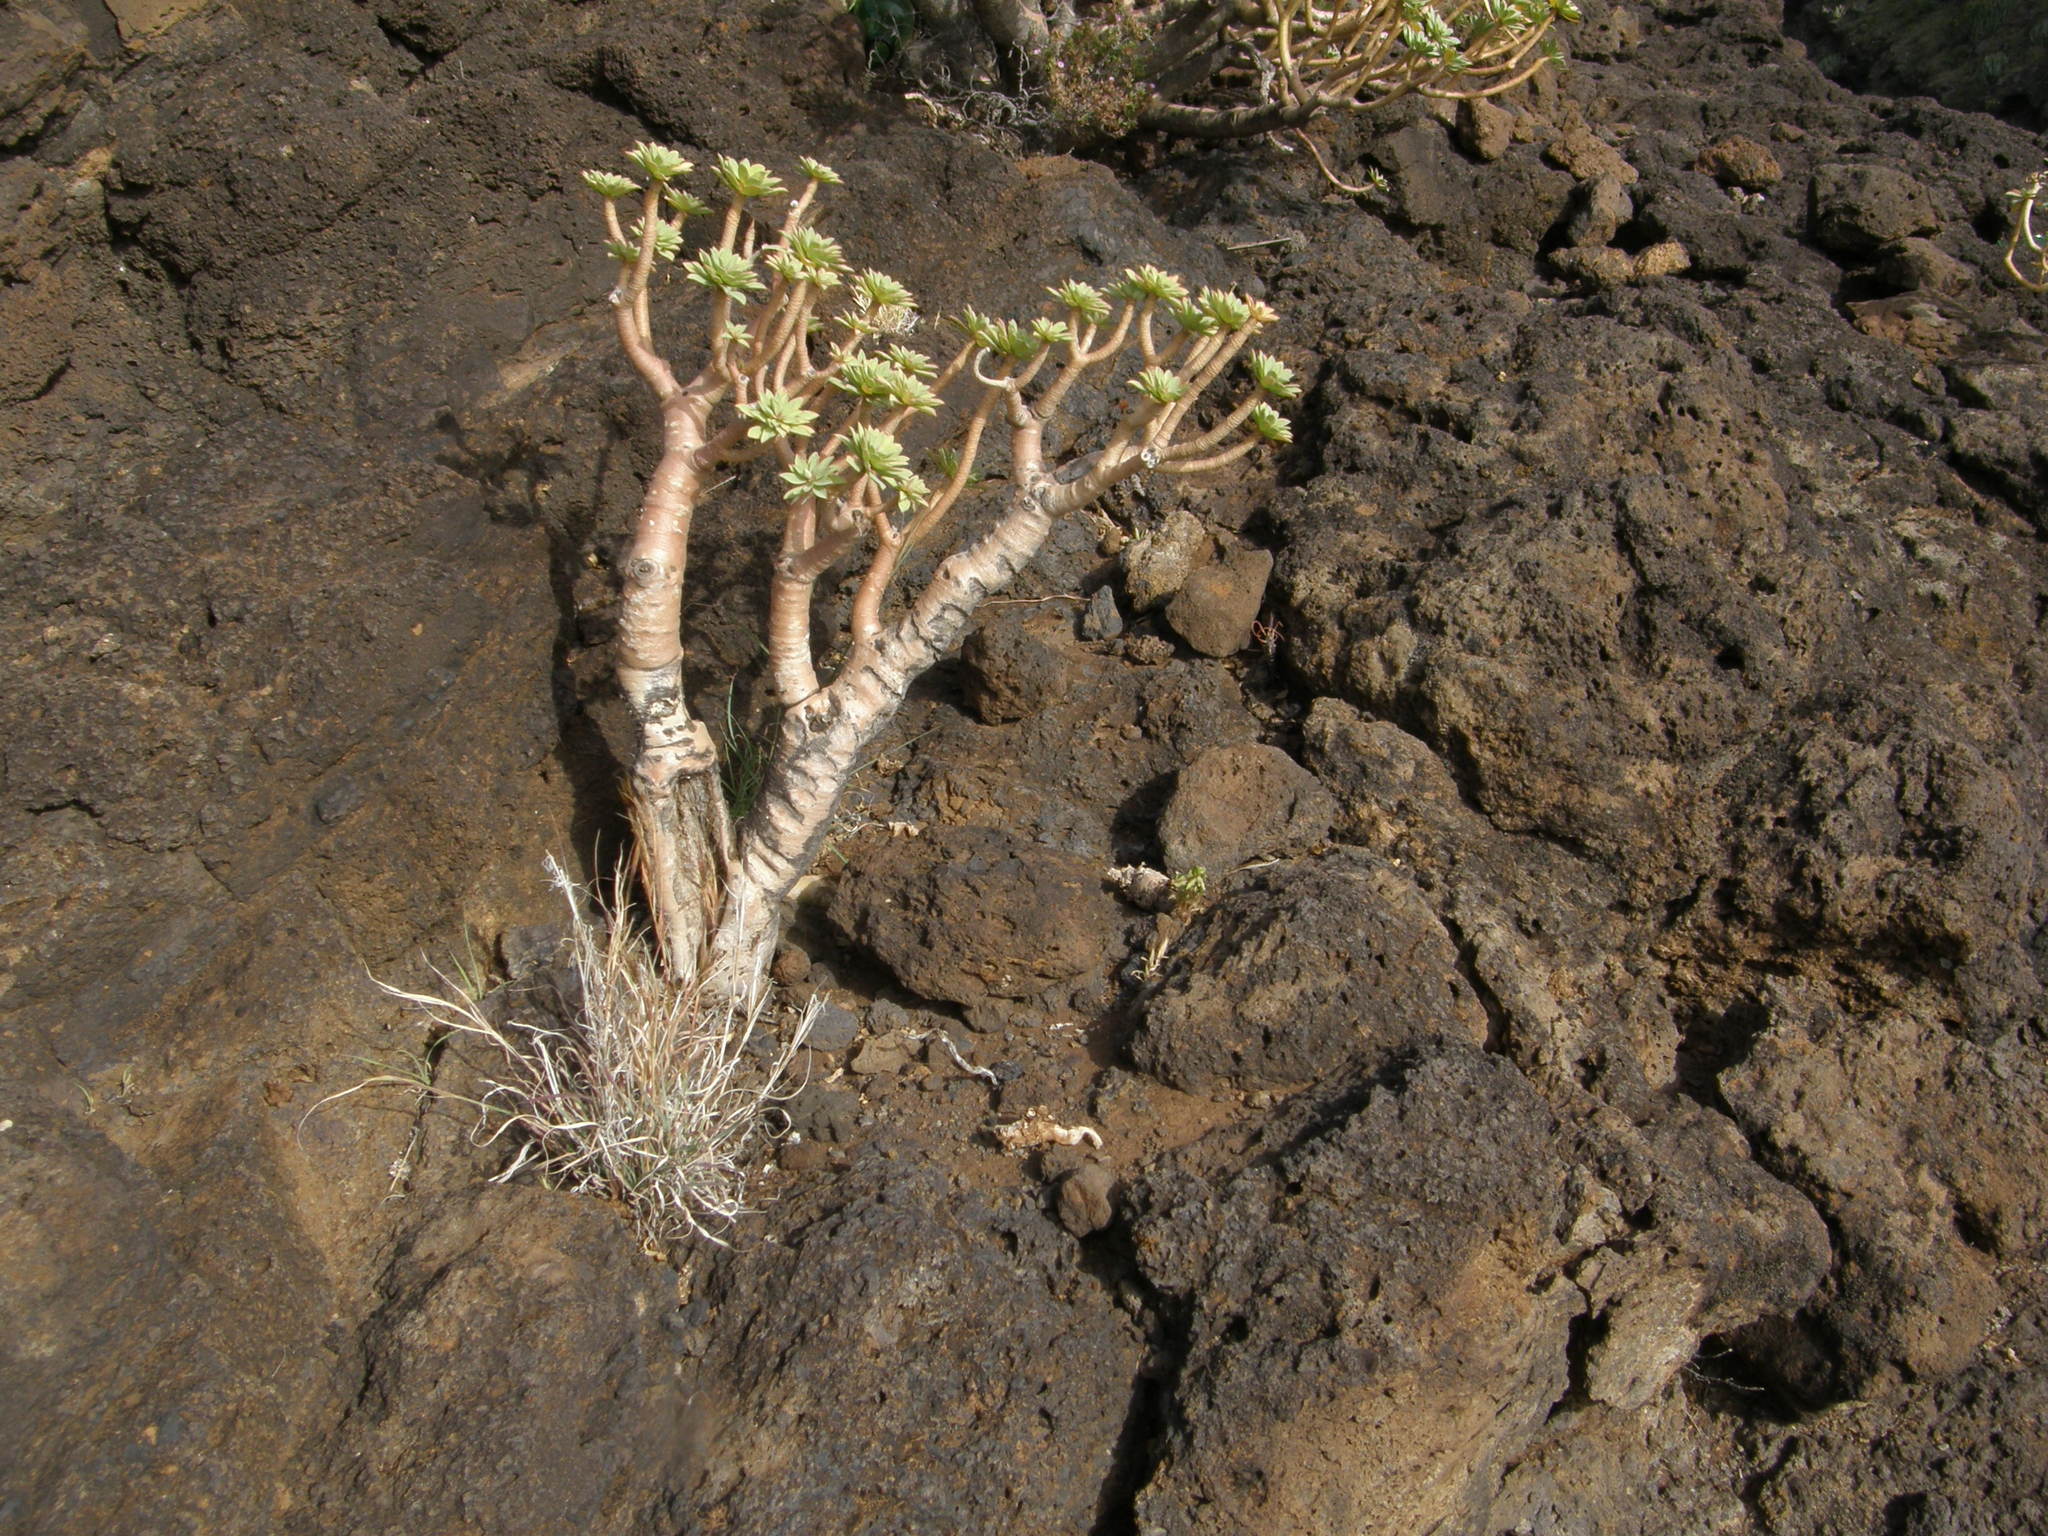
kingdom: Plantae
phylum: Tracheophyta
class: Magnoliopsida
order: Malpighiales
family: Euphorbiaceae
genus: Euphorbia
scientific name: Euphorbia balsamifera
